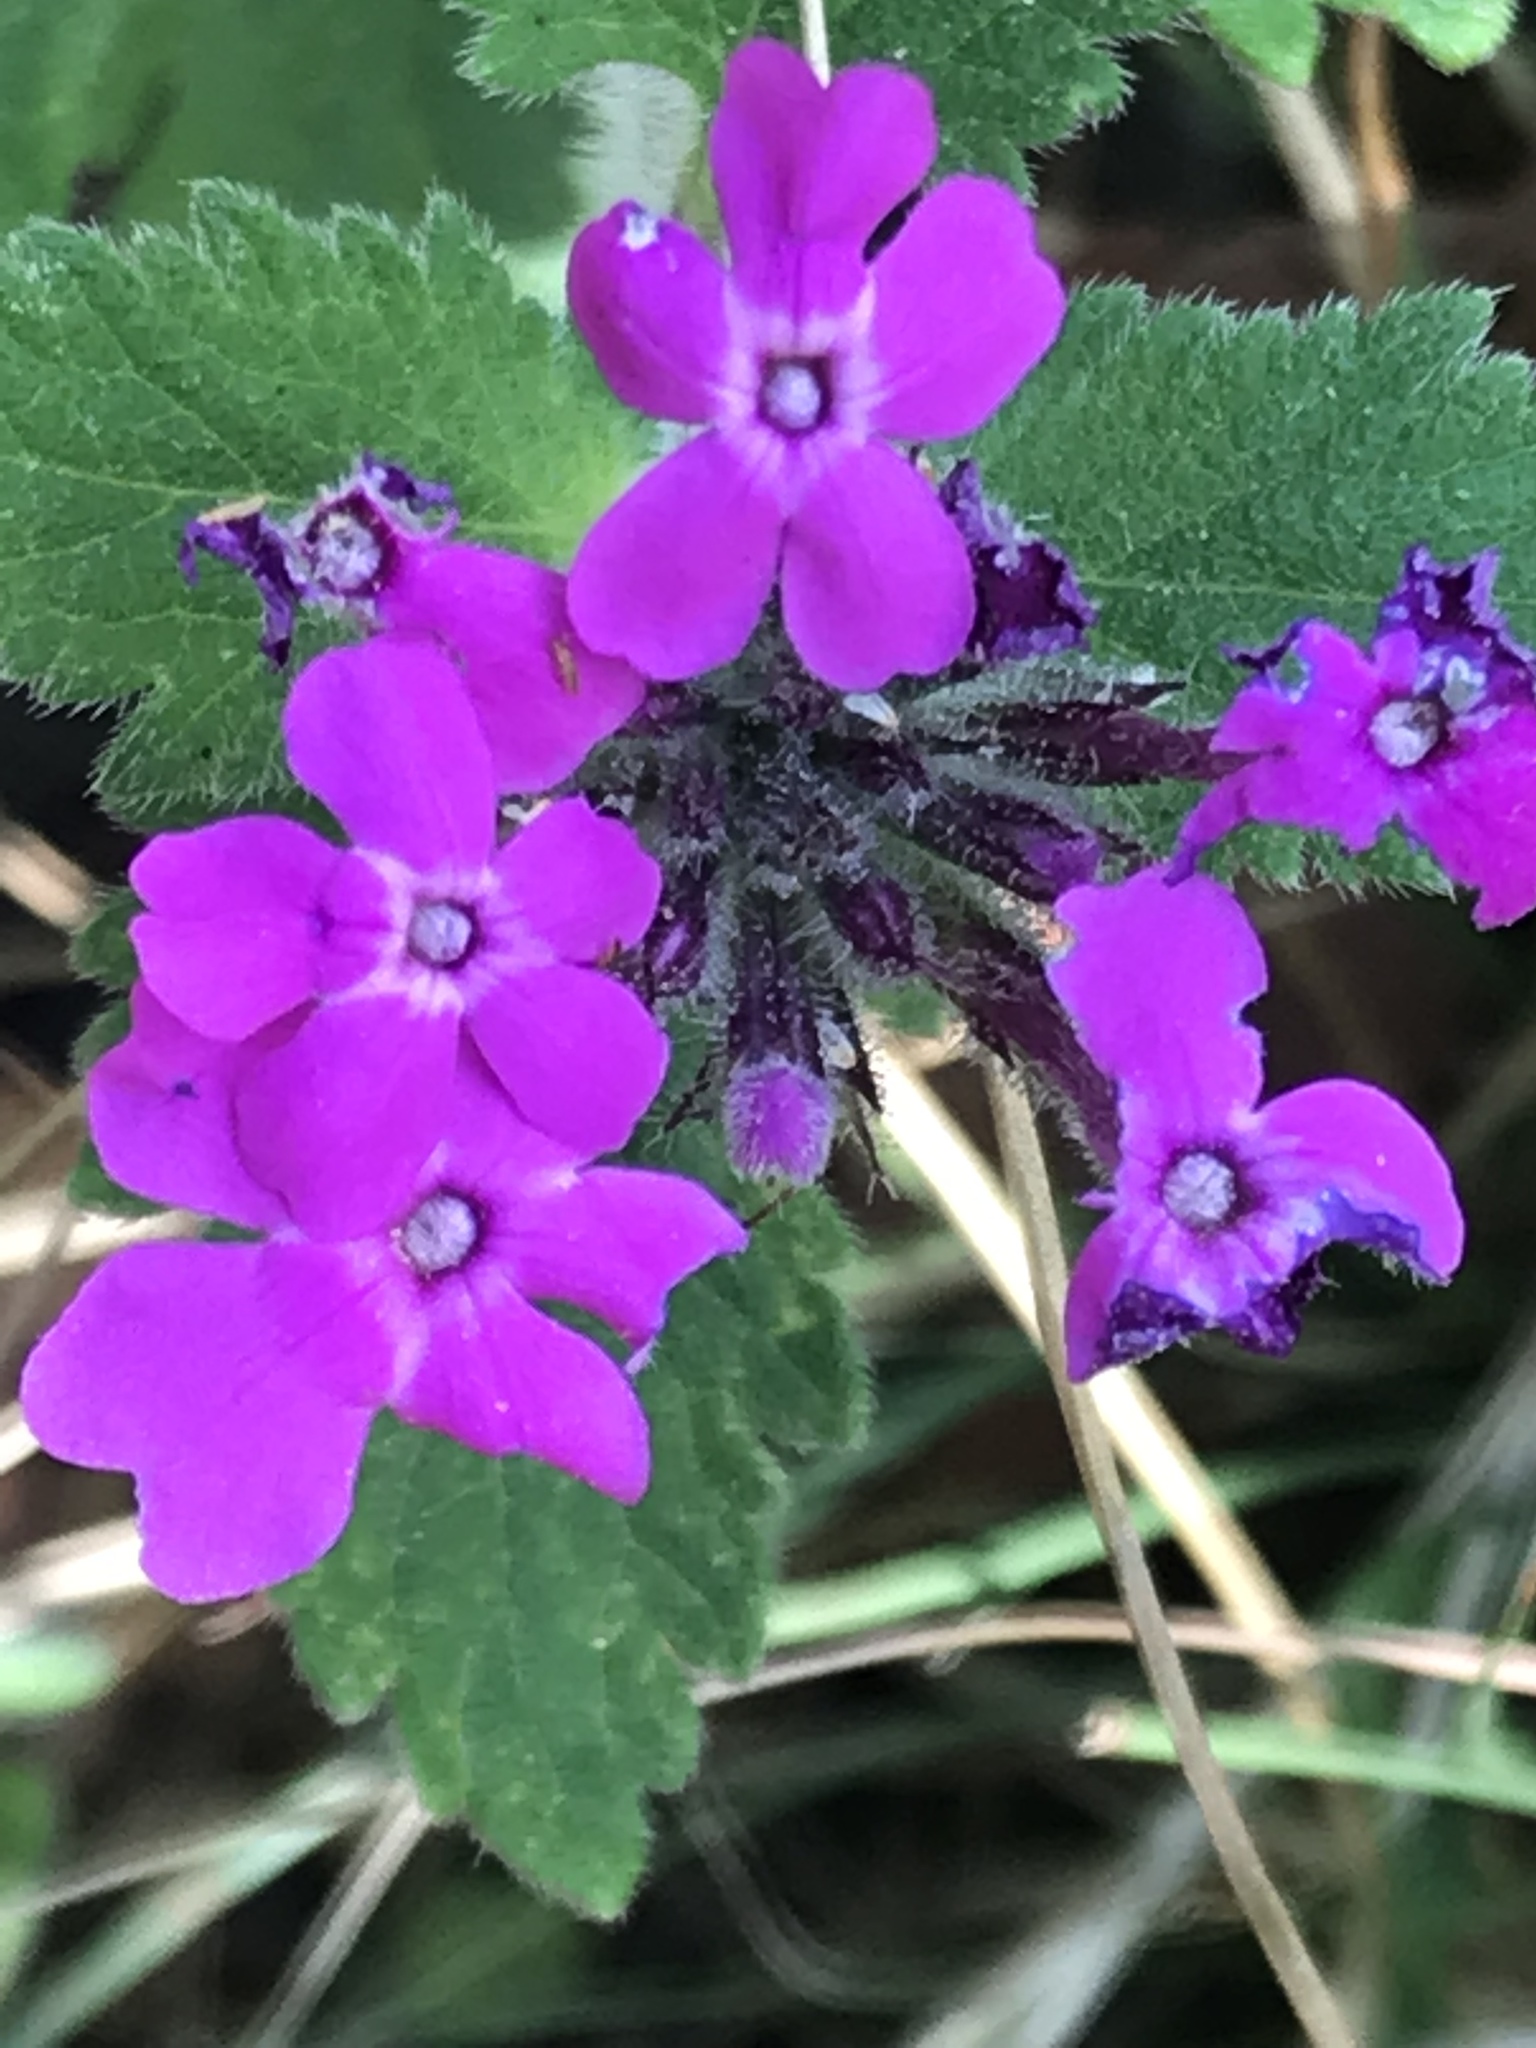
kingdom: Plantae
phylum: Tracheophyta
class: Magnoliopsida
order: Lamiales
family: Verbenaceae
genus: Verbena
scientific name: Verbena canadensis
